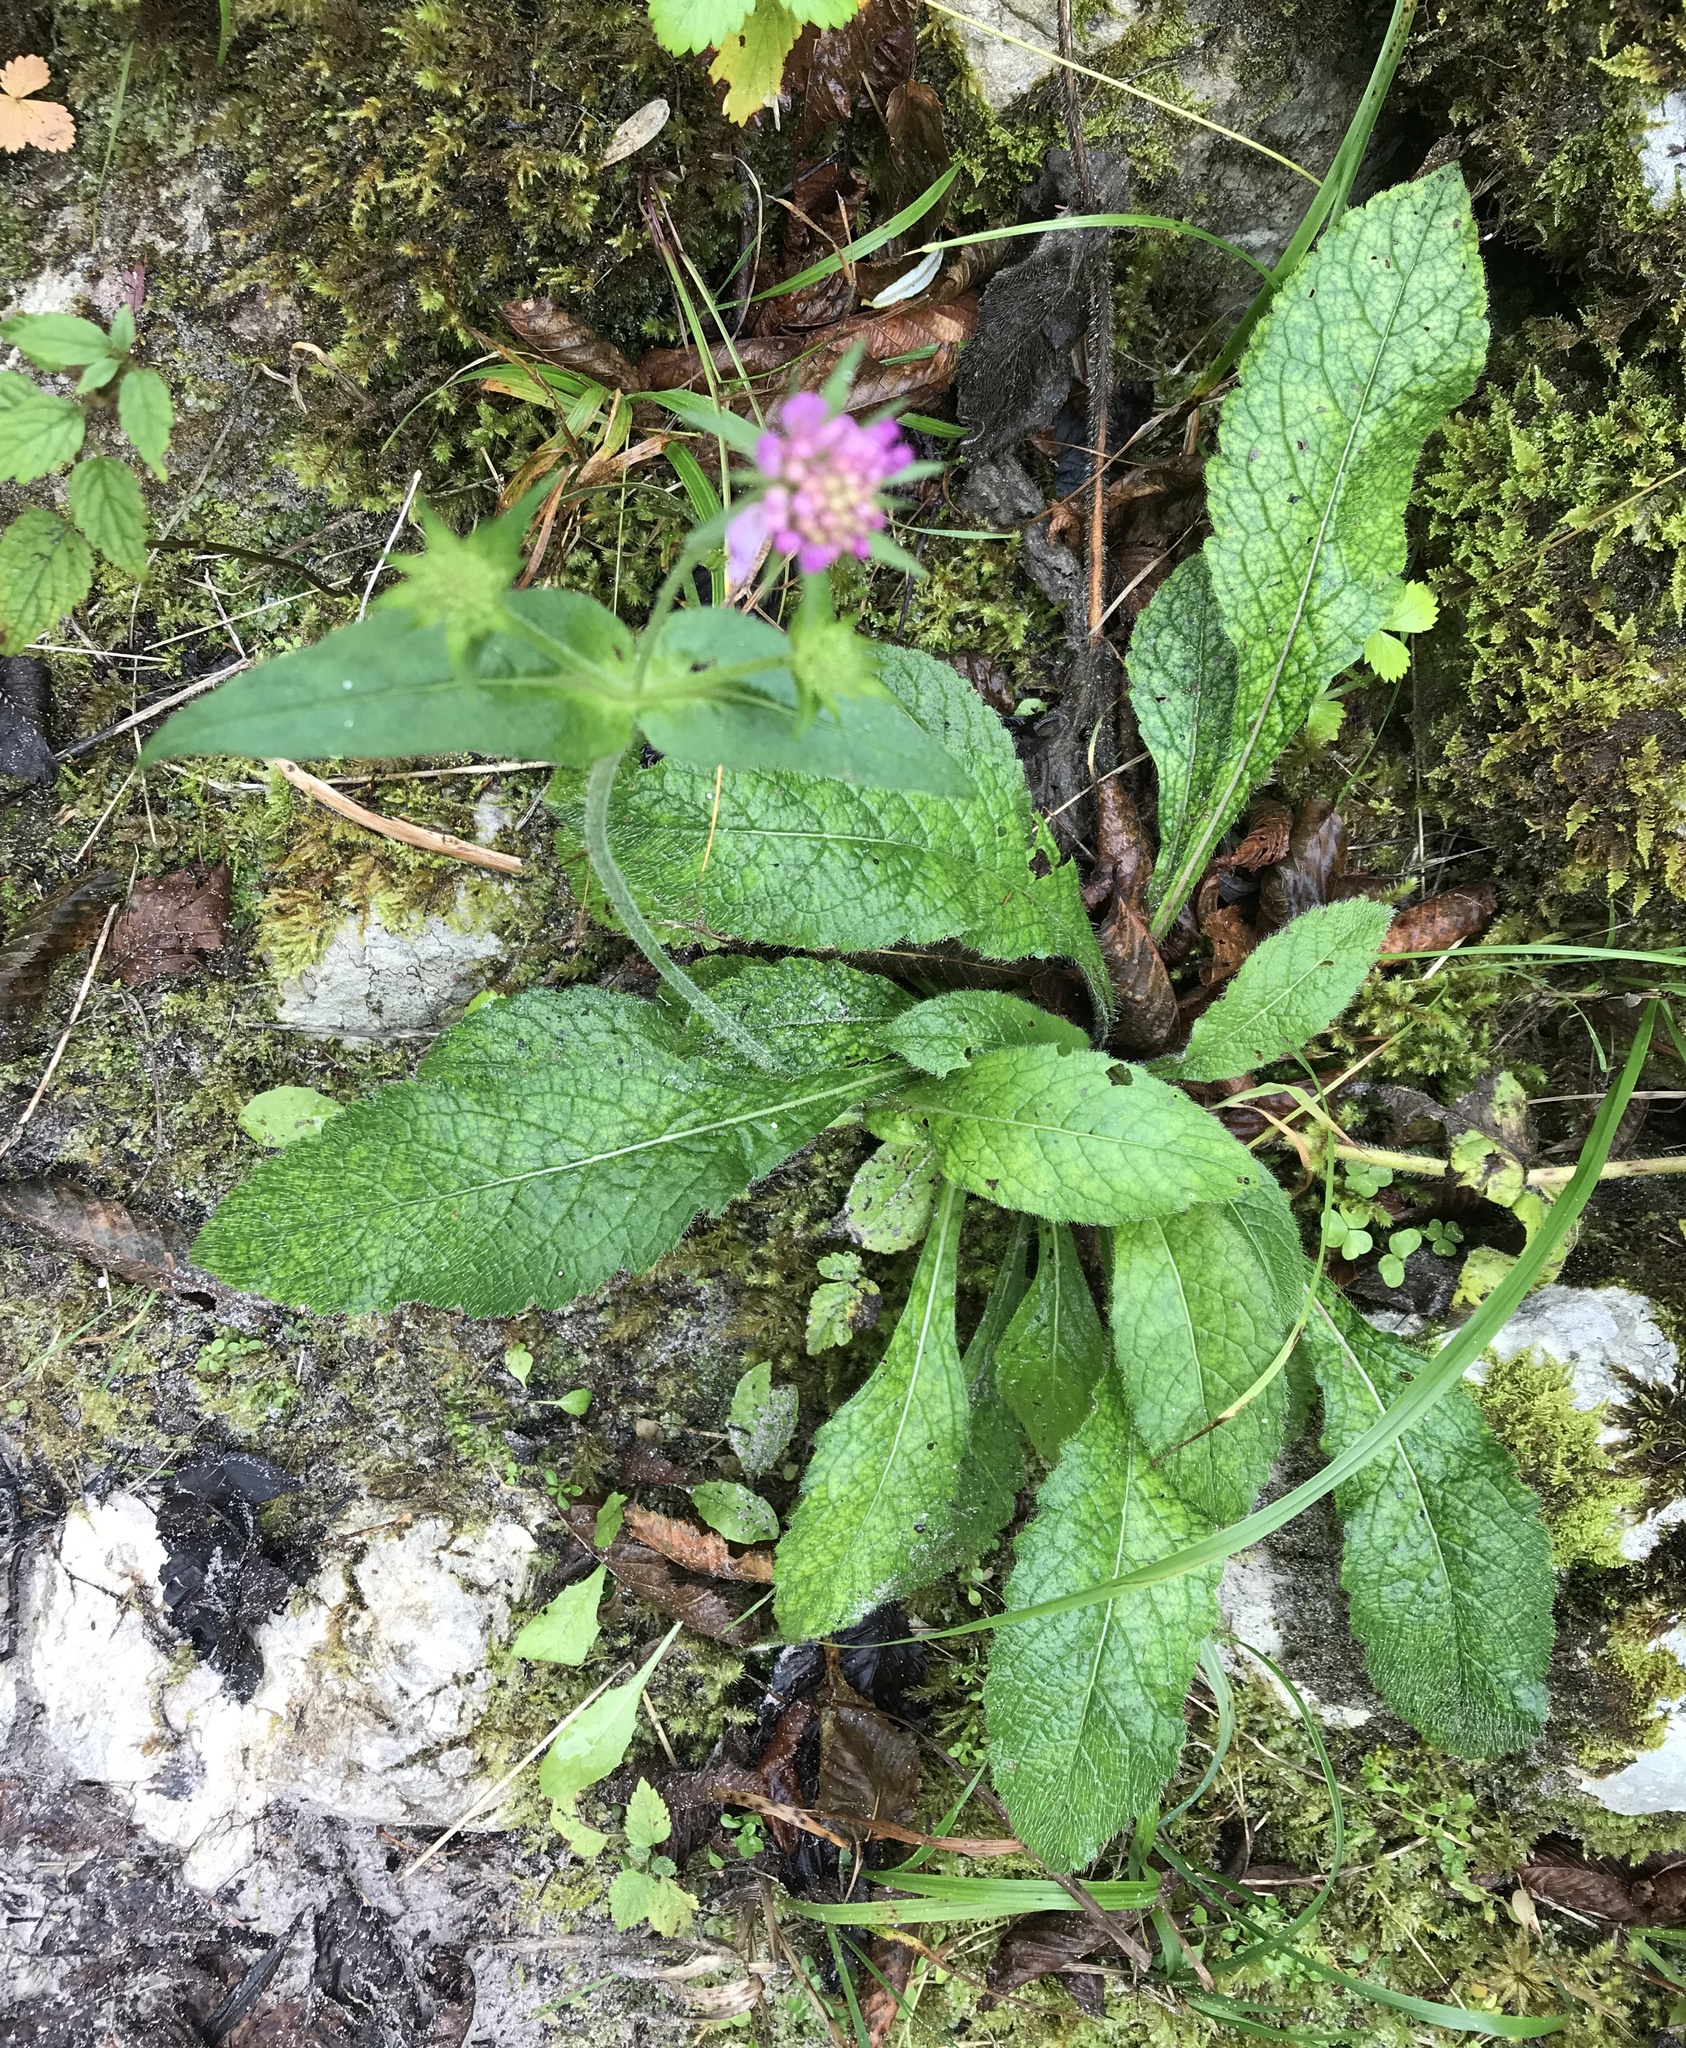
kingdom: Plantae
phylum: Tracheophyta
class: Magnoliopsida
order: Dipsacales
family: Caprifoliaceae
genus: Knautia
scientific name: Knautia drymeia
